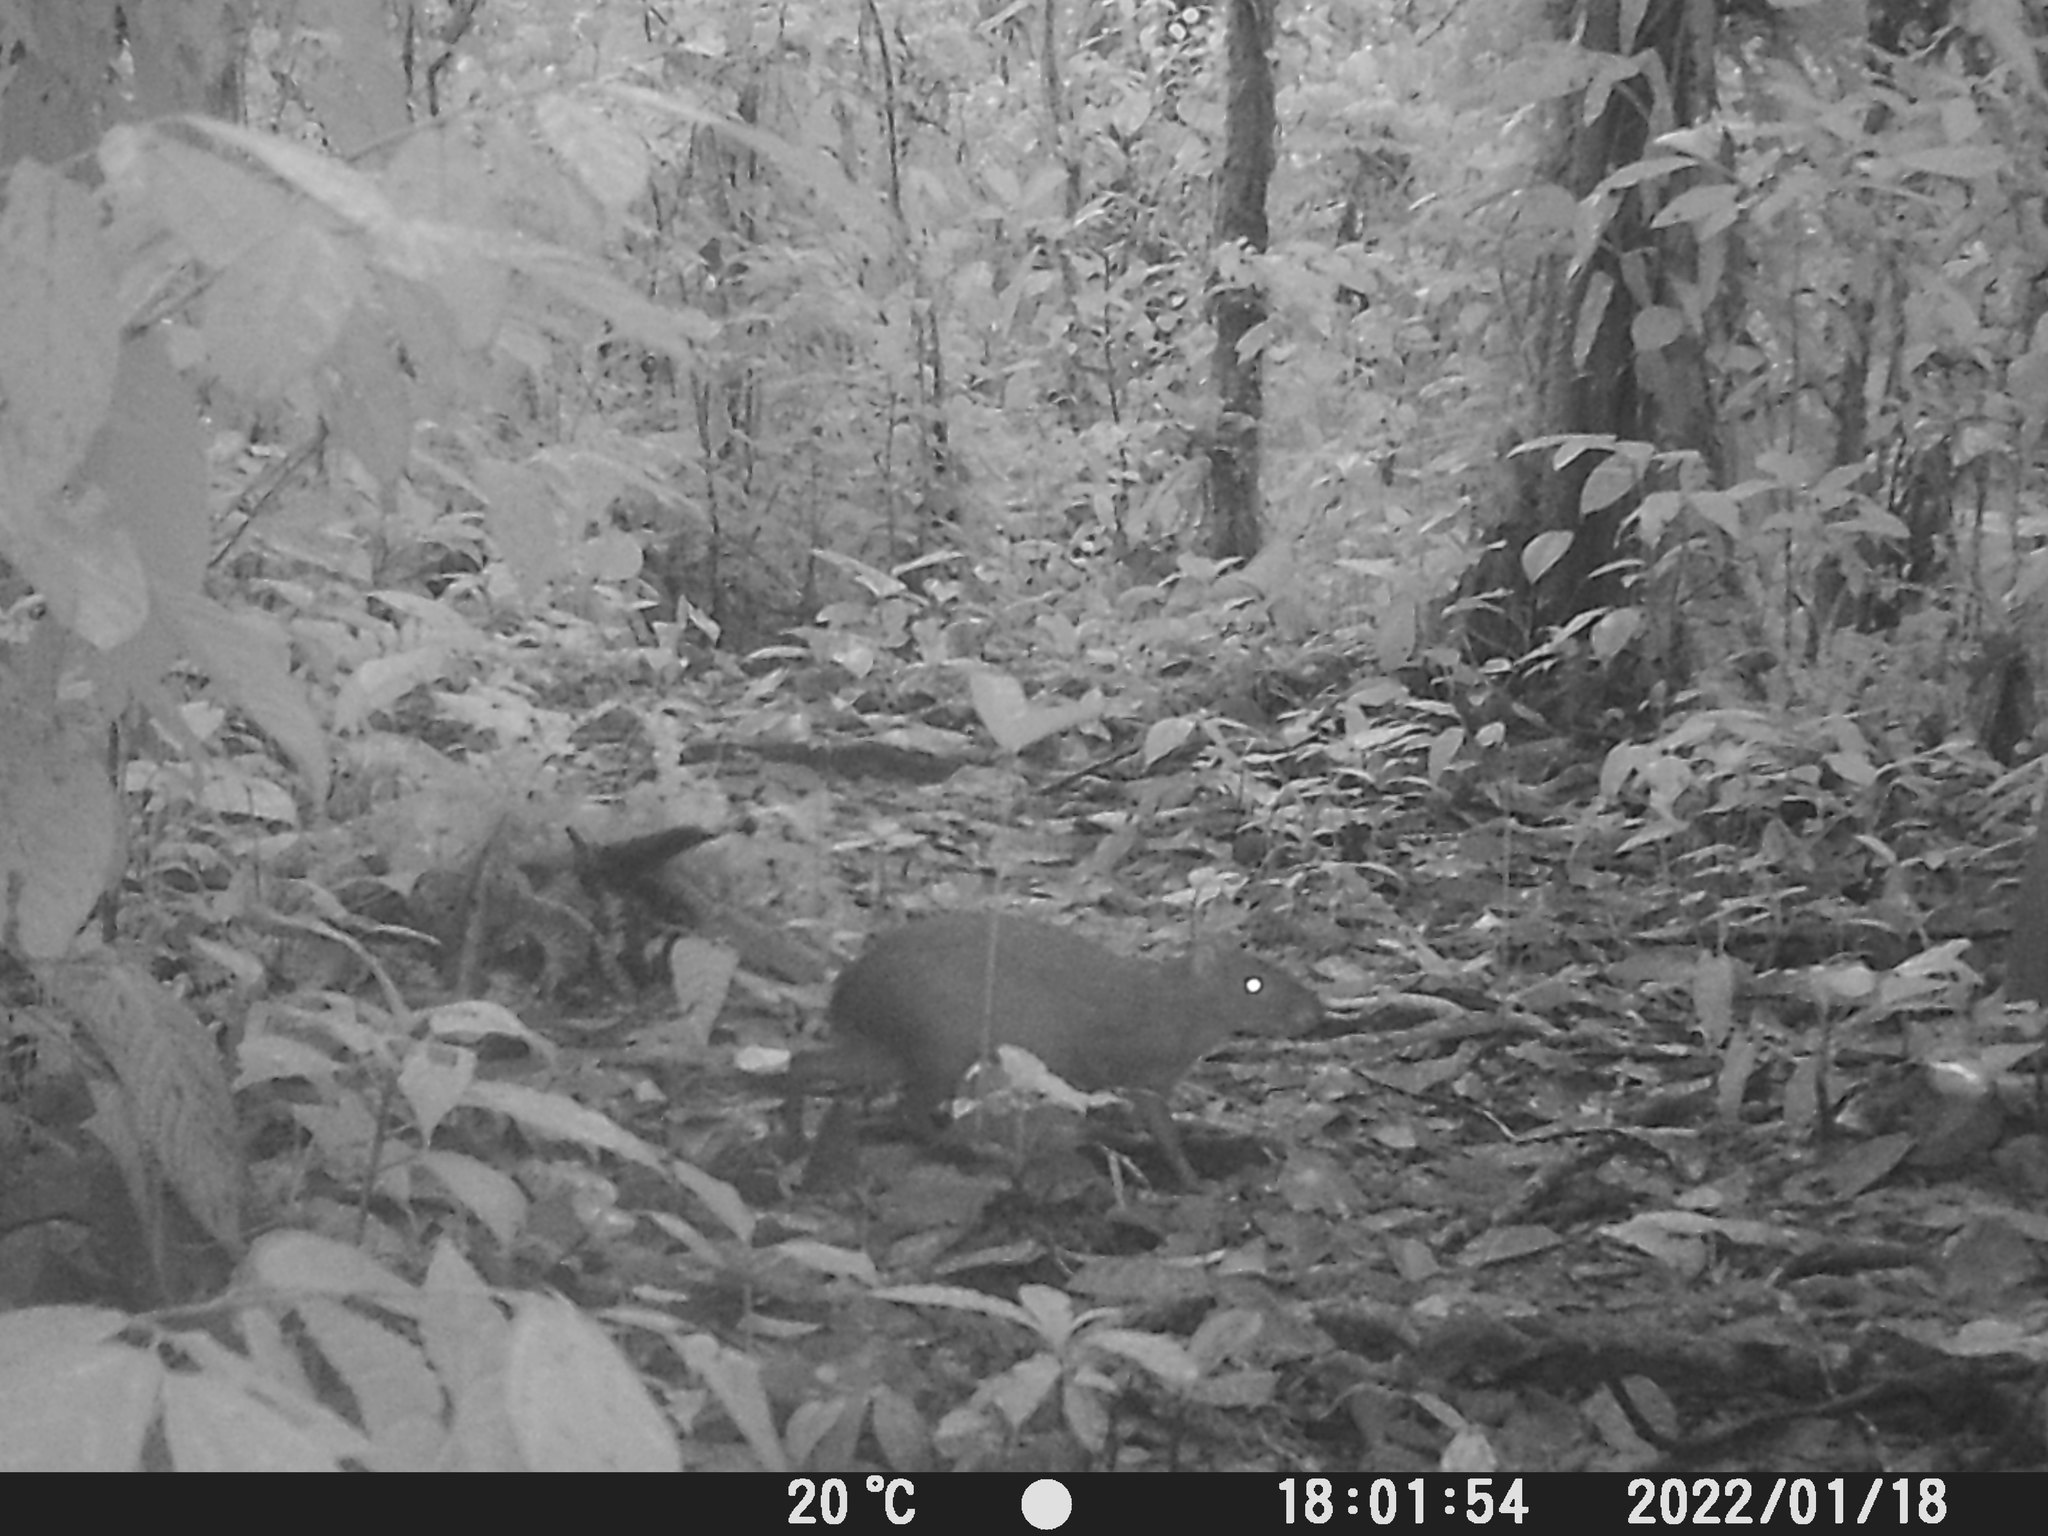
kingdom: Animalia
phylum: Chordata
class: Mammalia
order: Rodentia
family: Dasyproctidae
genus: Dasyprocta
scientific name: Dasyprocta punctata
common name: Central american agouti
